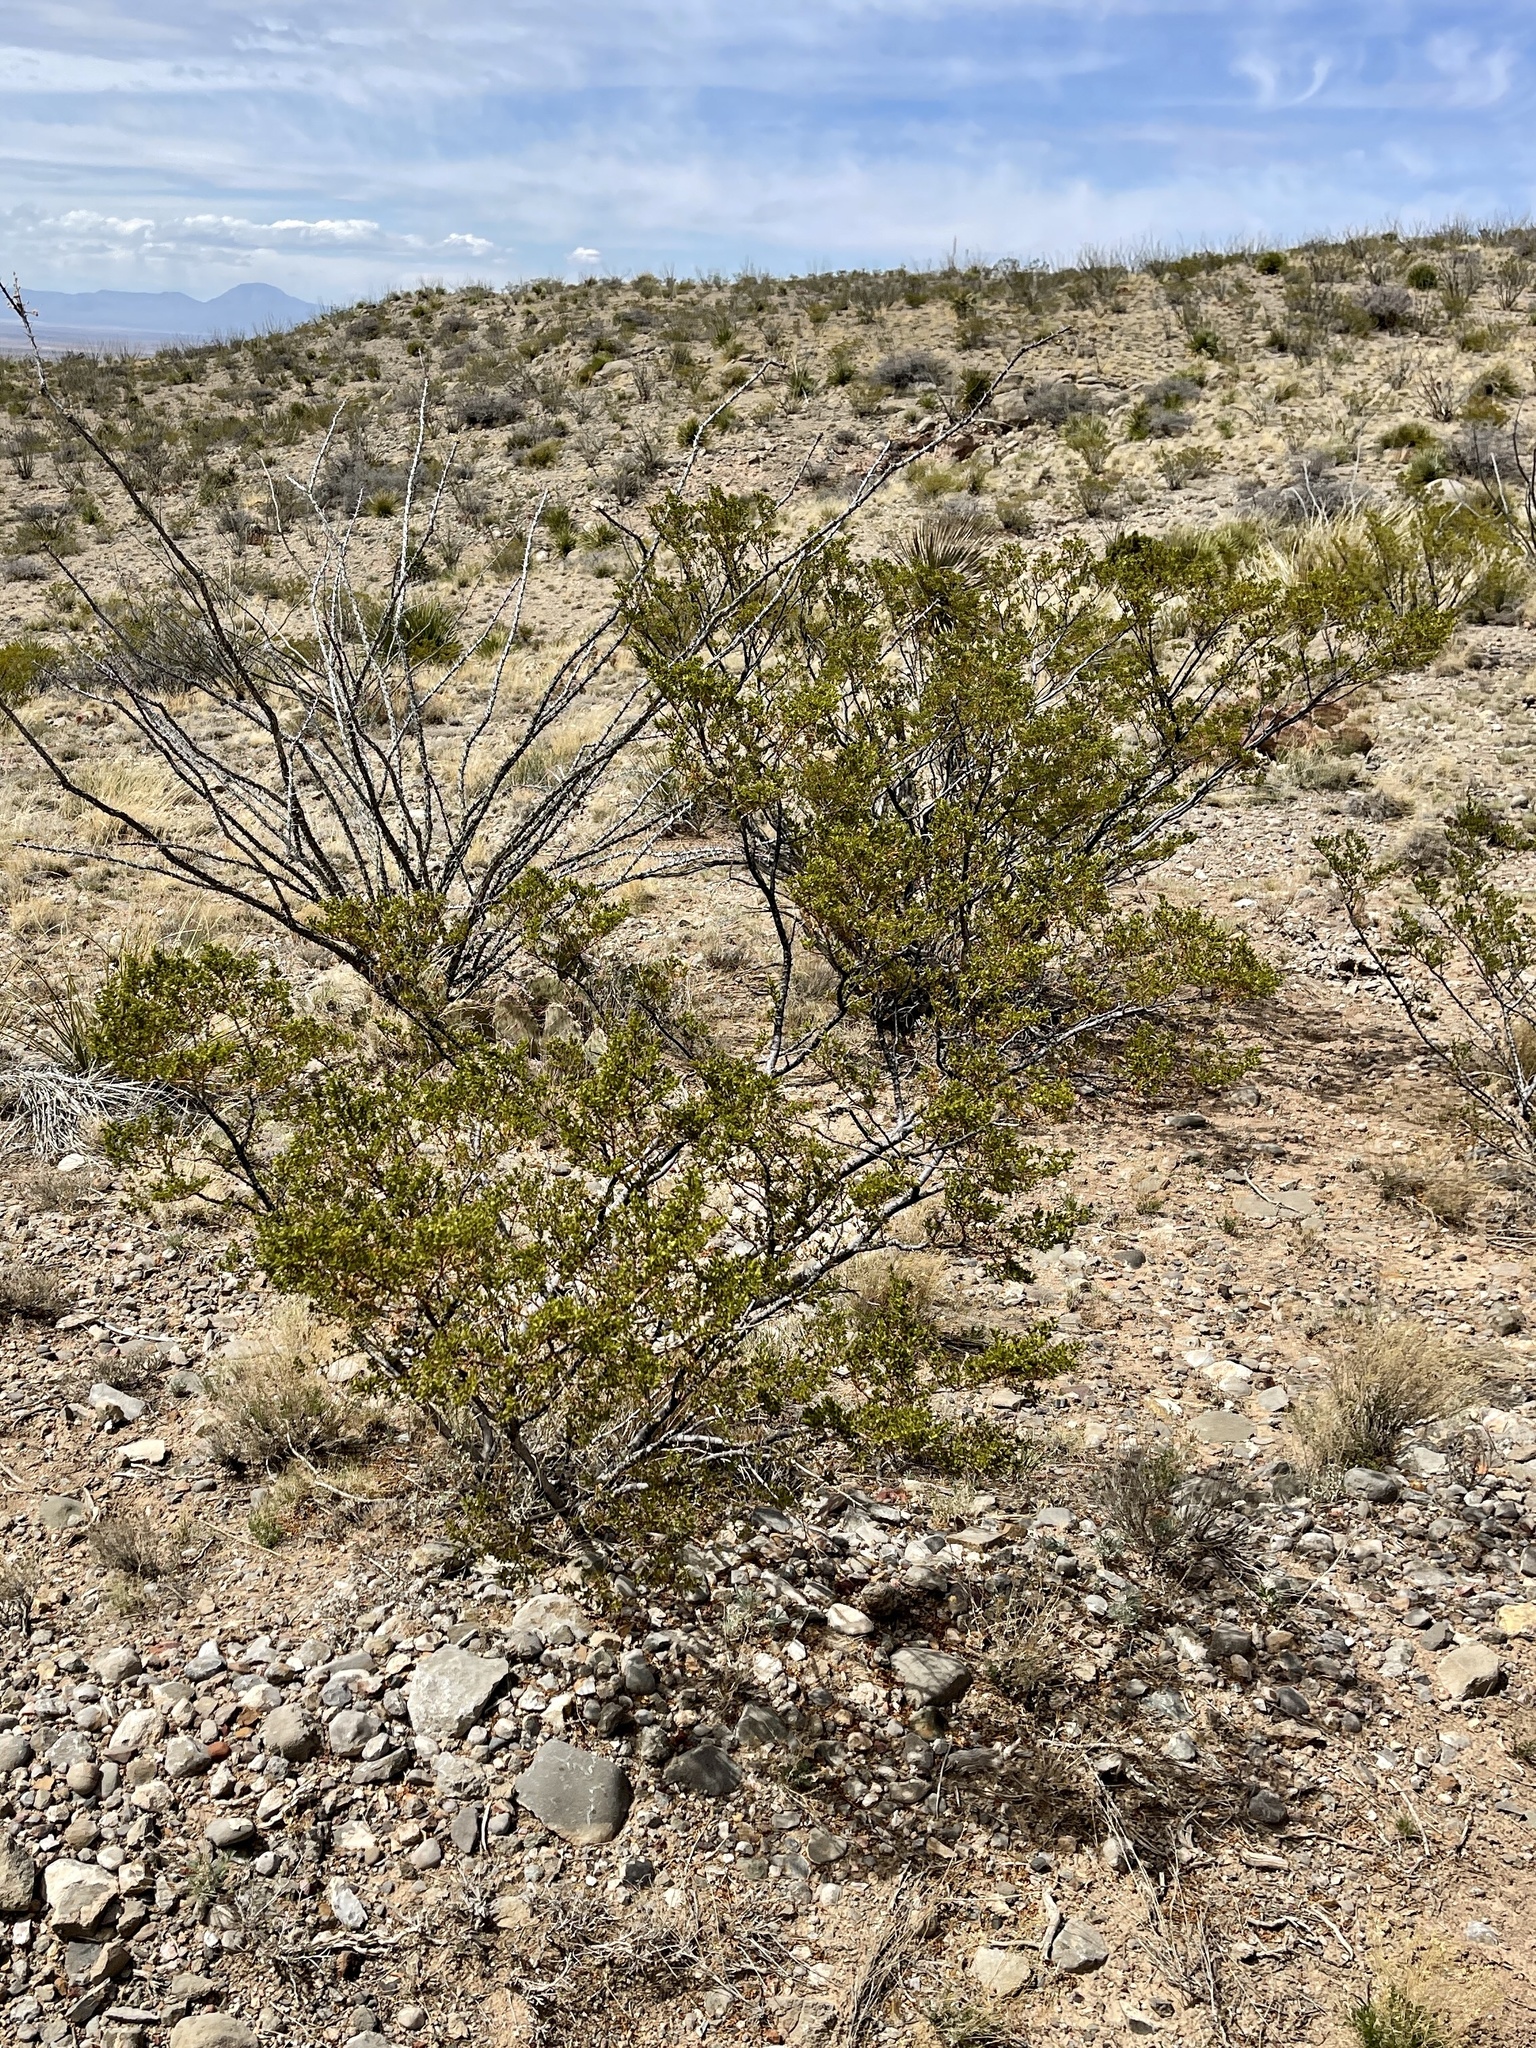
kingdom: Plantae
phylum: Tracheophyta
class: Magnoliopsida
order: Zygophyllales
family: Zygophyllaceae
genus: Larrea
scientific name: Larrea tridentata
